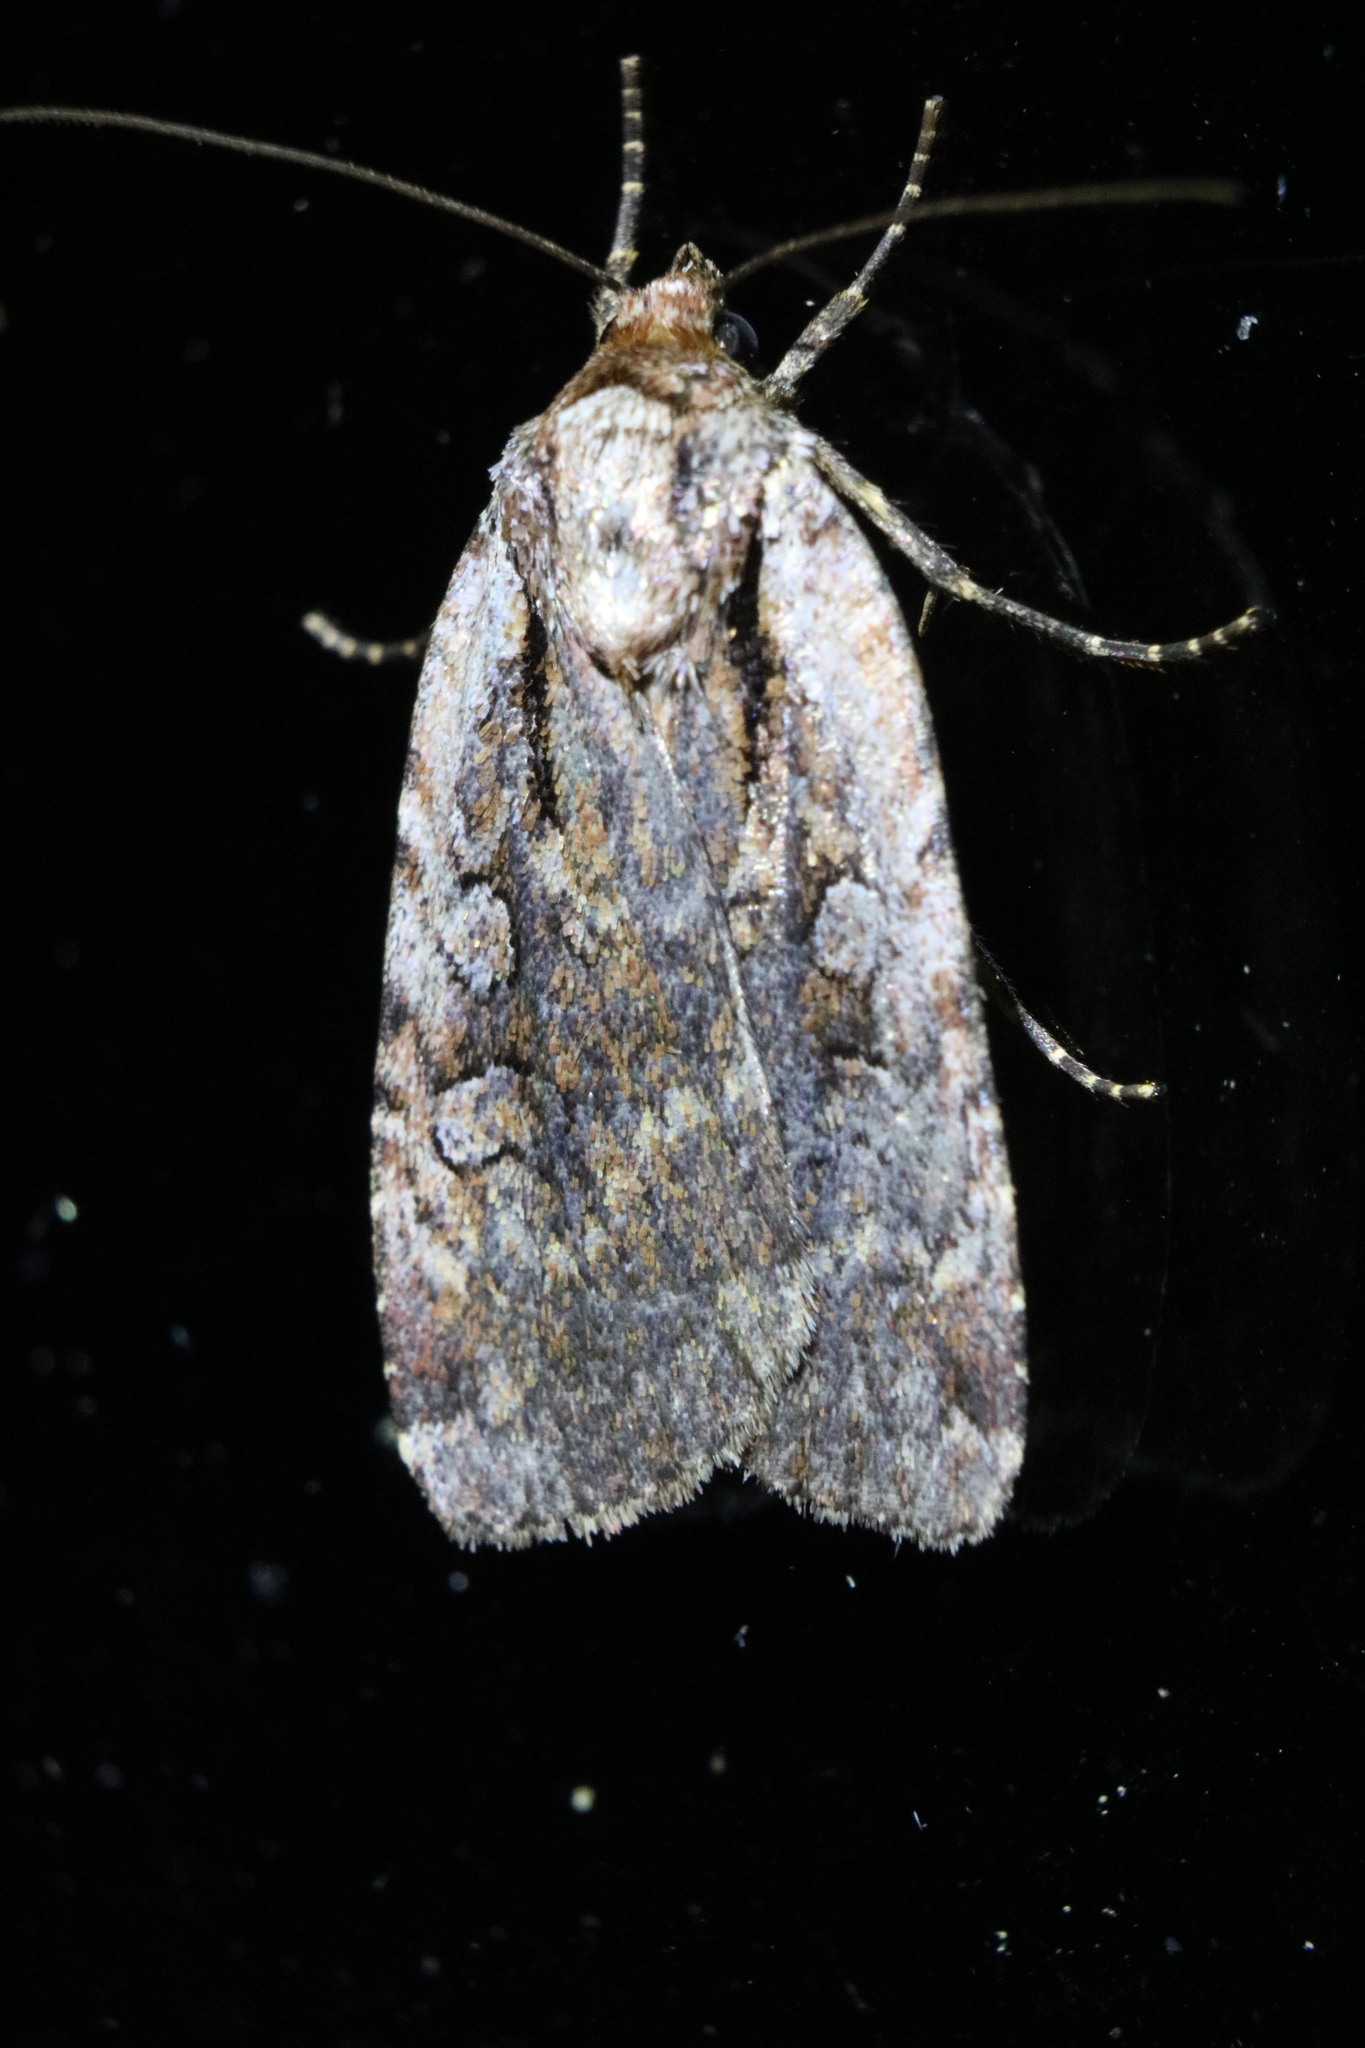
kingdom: Animalia
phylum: Arthropoda
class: Insecta
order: Lepidoptera
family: Noctuidae
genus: Eueretagrotis
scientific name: Eueretagrotis attentus
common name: Attentive dart
